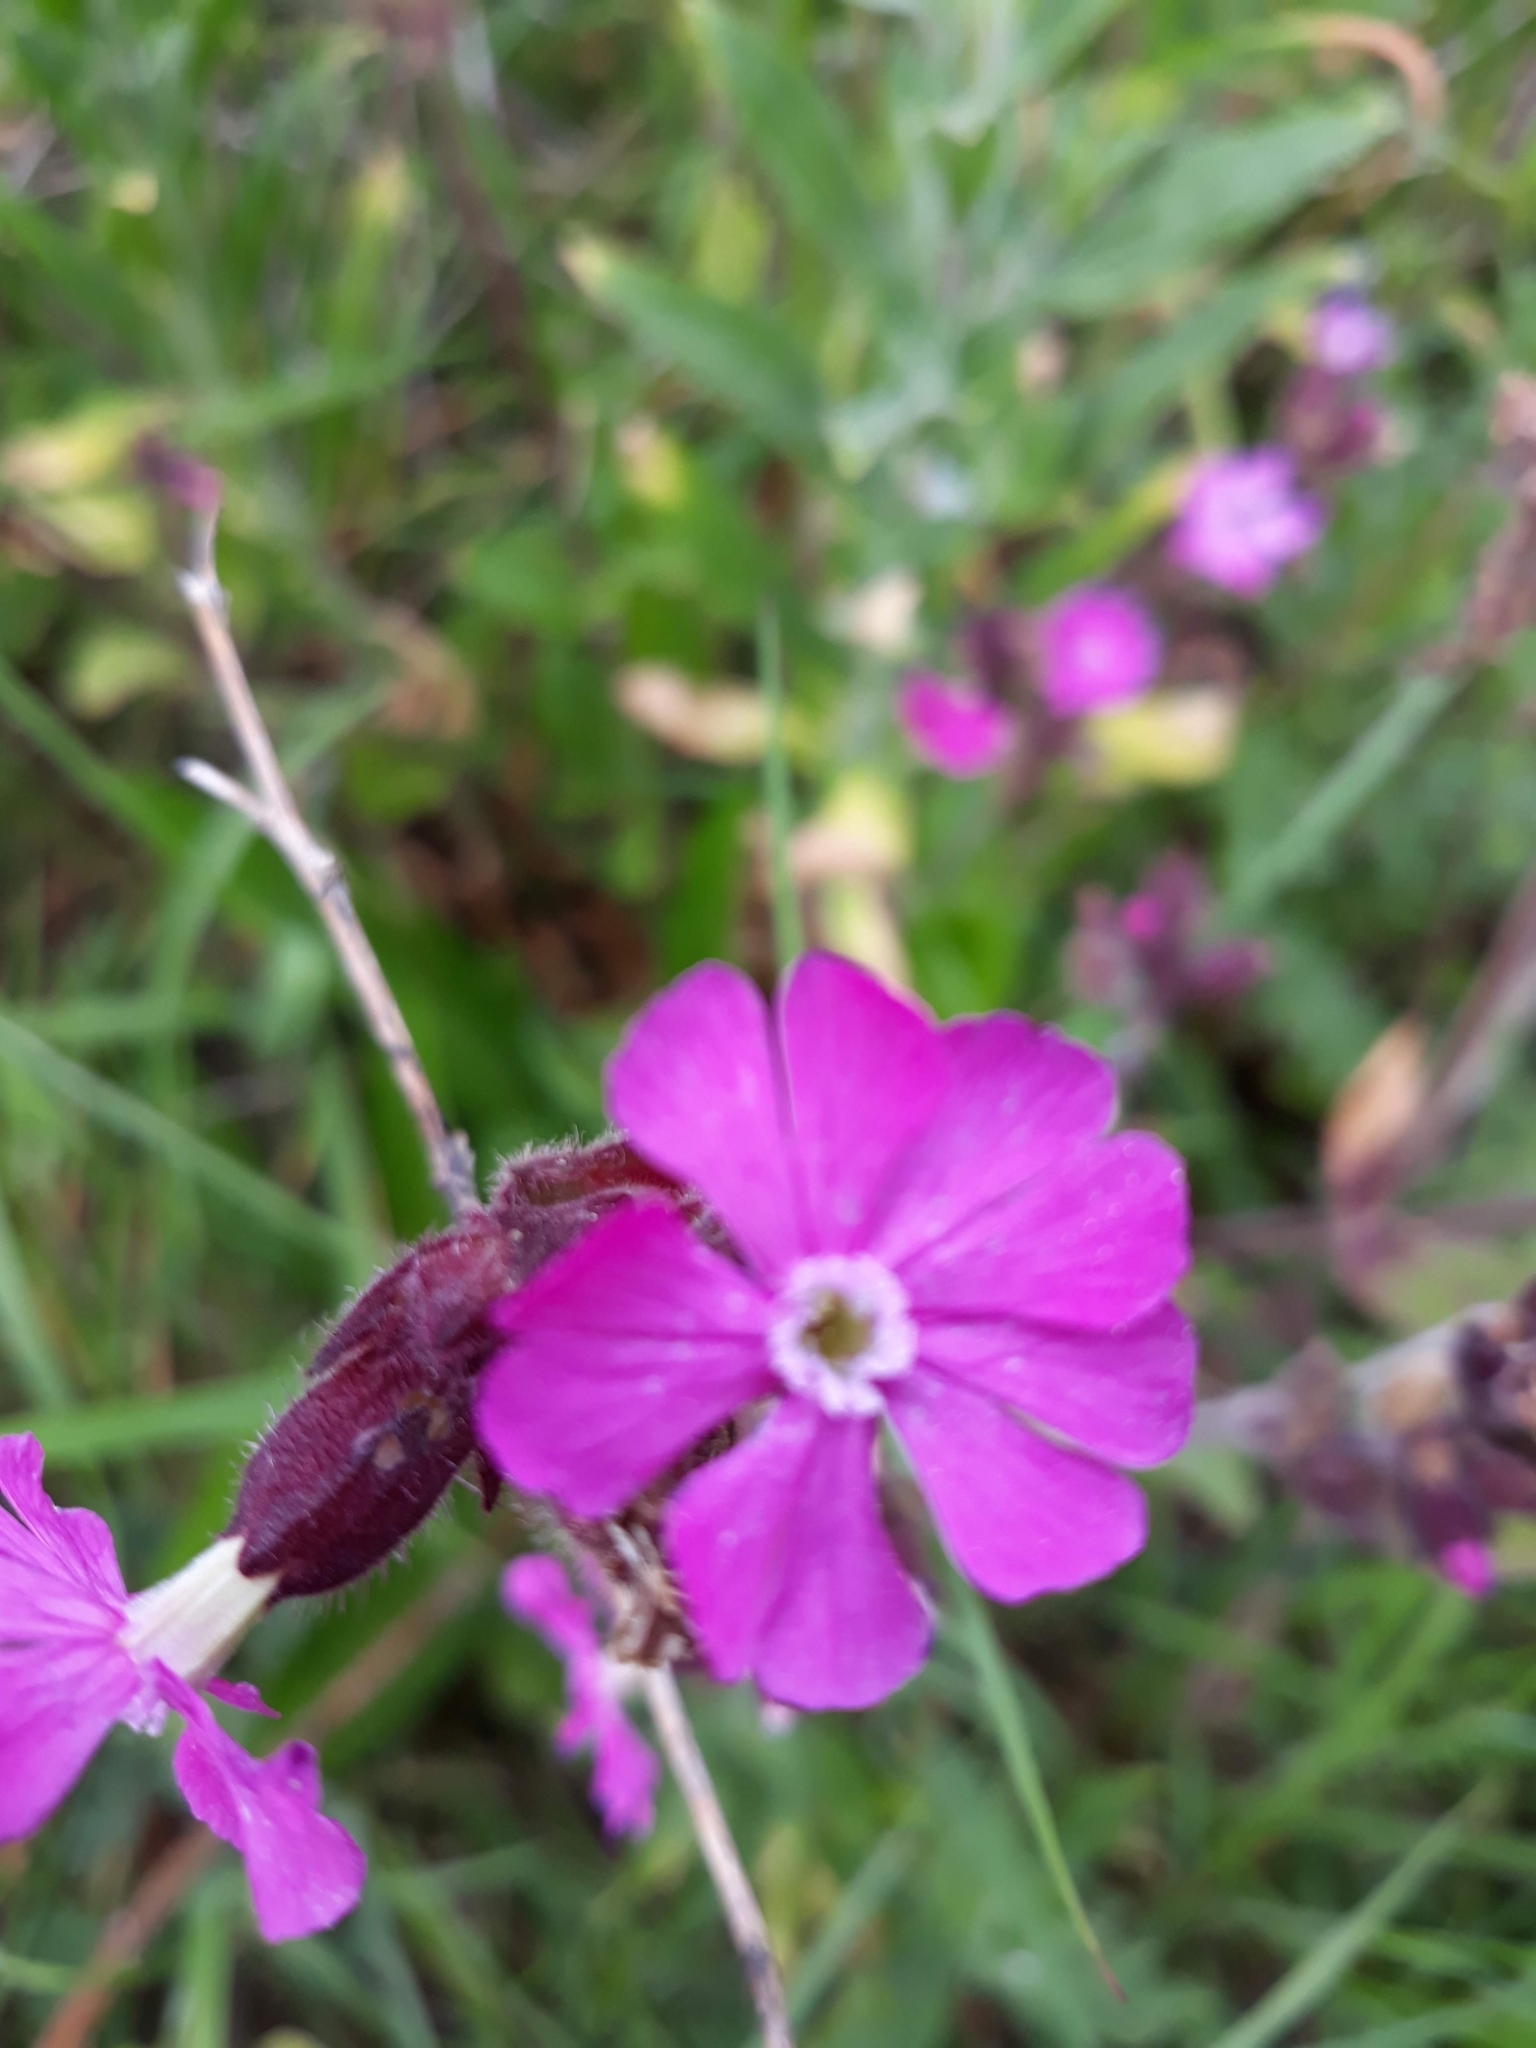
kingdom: Plantae
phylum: Tracheophyta
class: Magnoliopsida
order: Caryophyllales
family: Caryophyllaceae
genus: Silene
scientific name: Silene dioica
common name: Red campion
